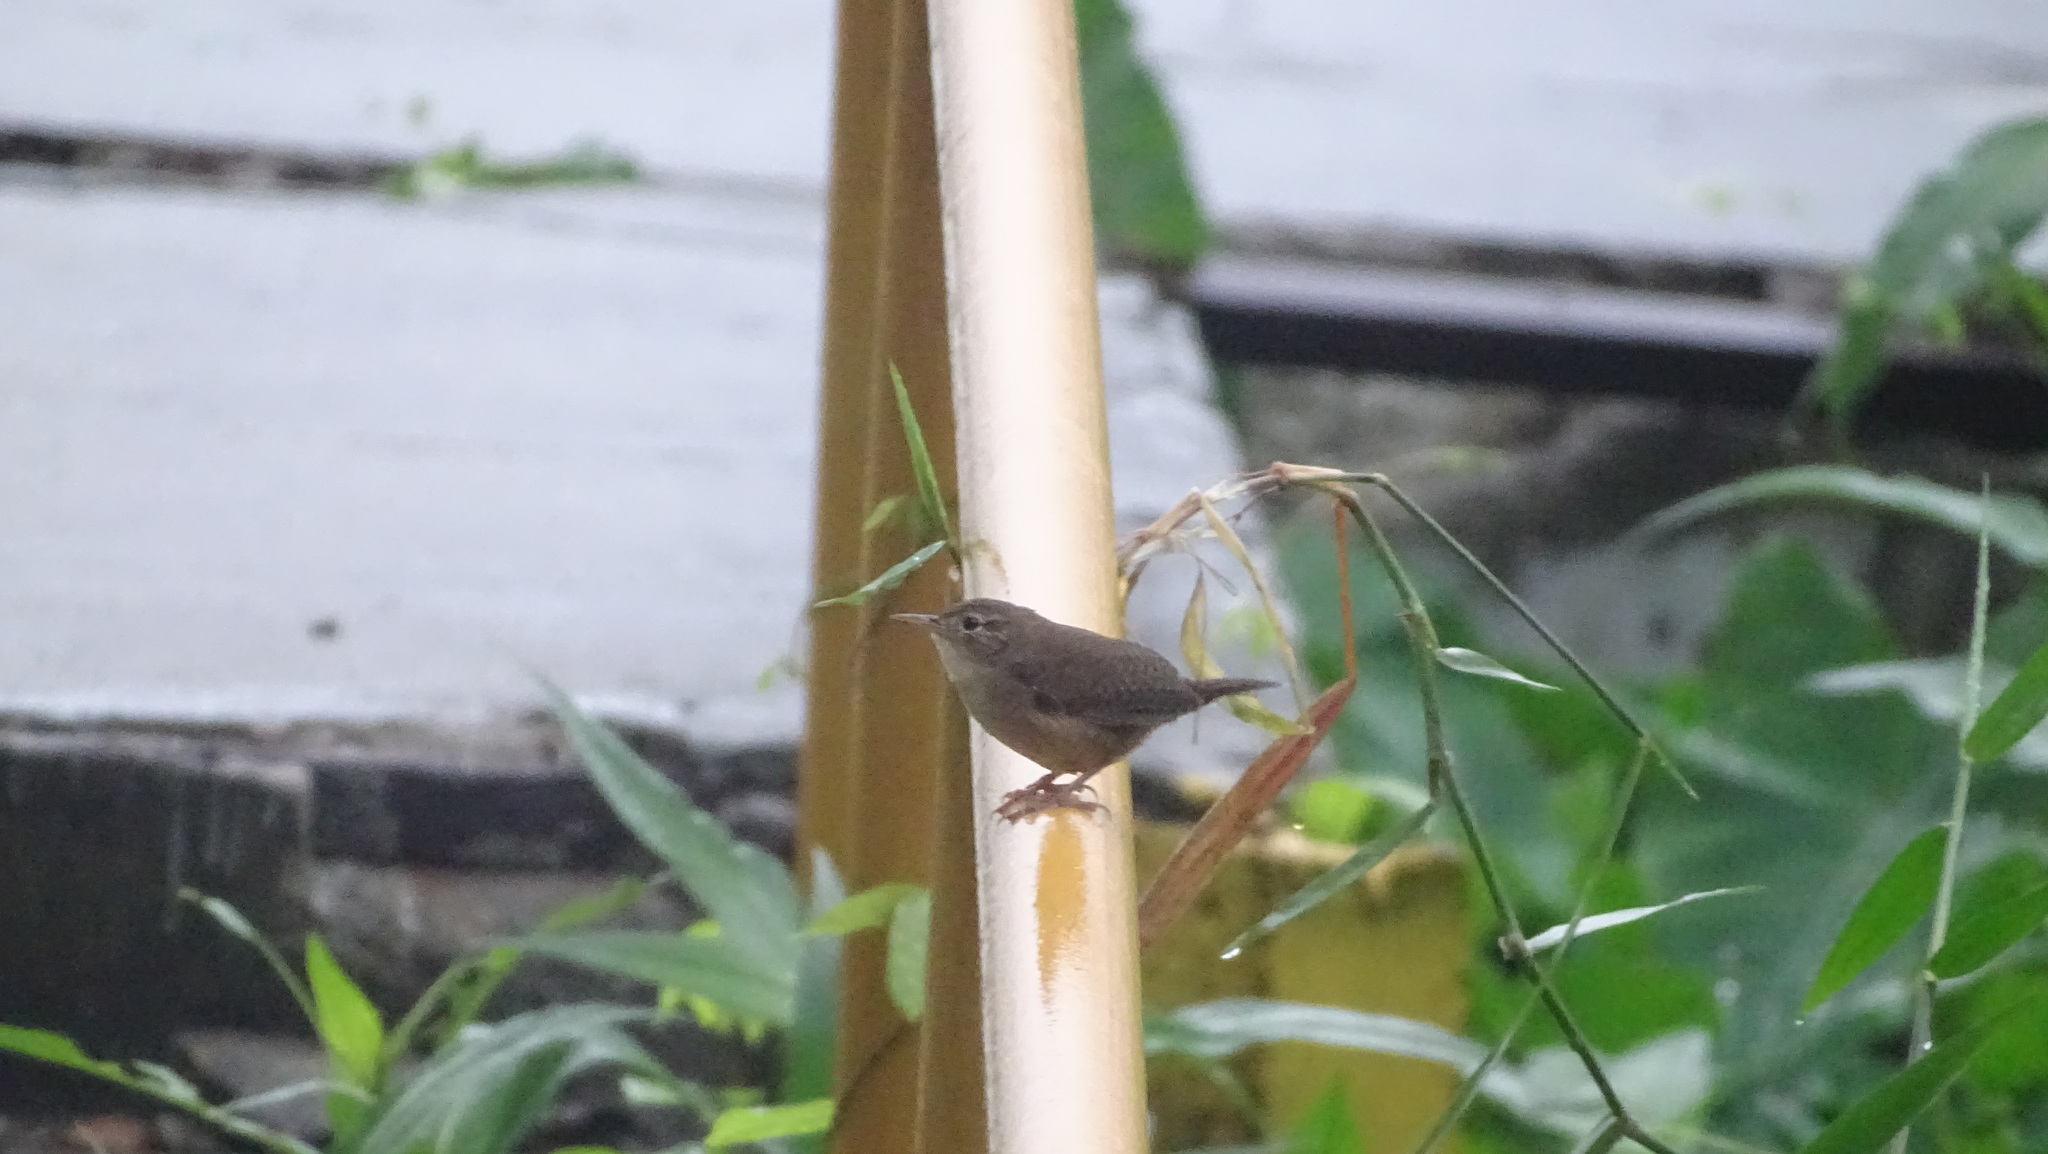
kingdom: Animalia
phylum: Chordata
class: Aves
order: Passeriformes
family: Troglodytidae
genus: Troglodytes
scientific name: Troglodytes aedon
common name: House wren
